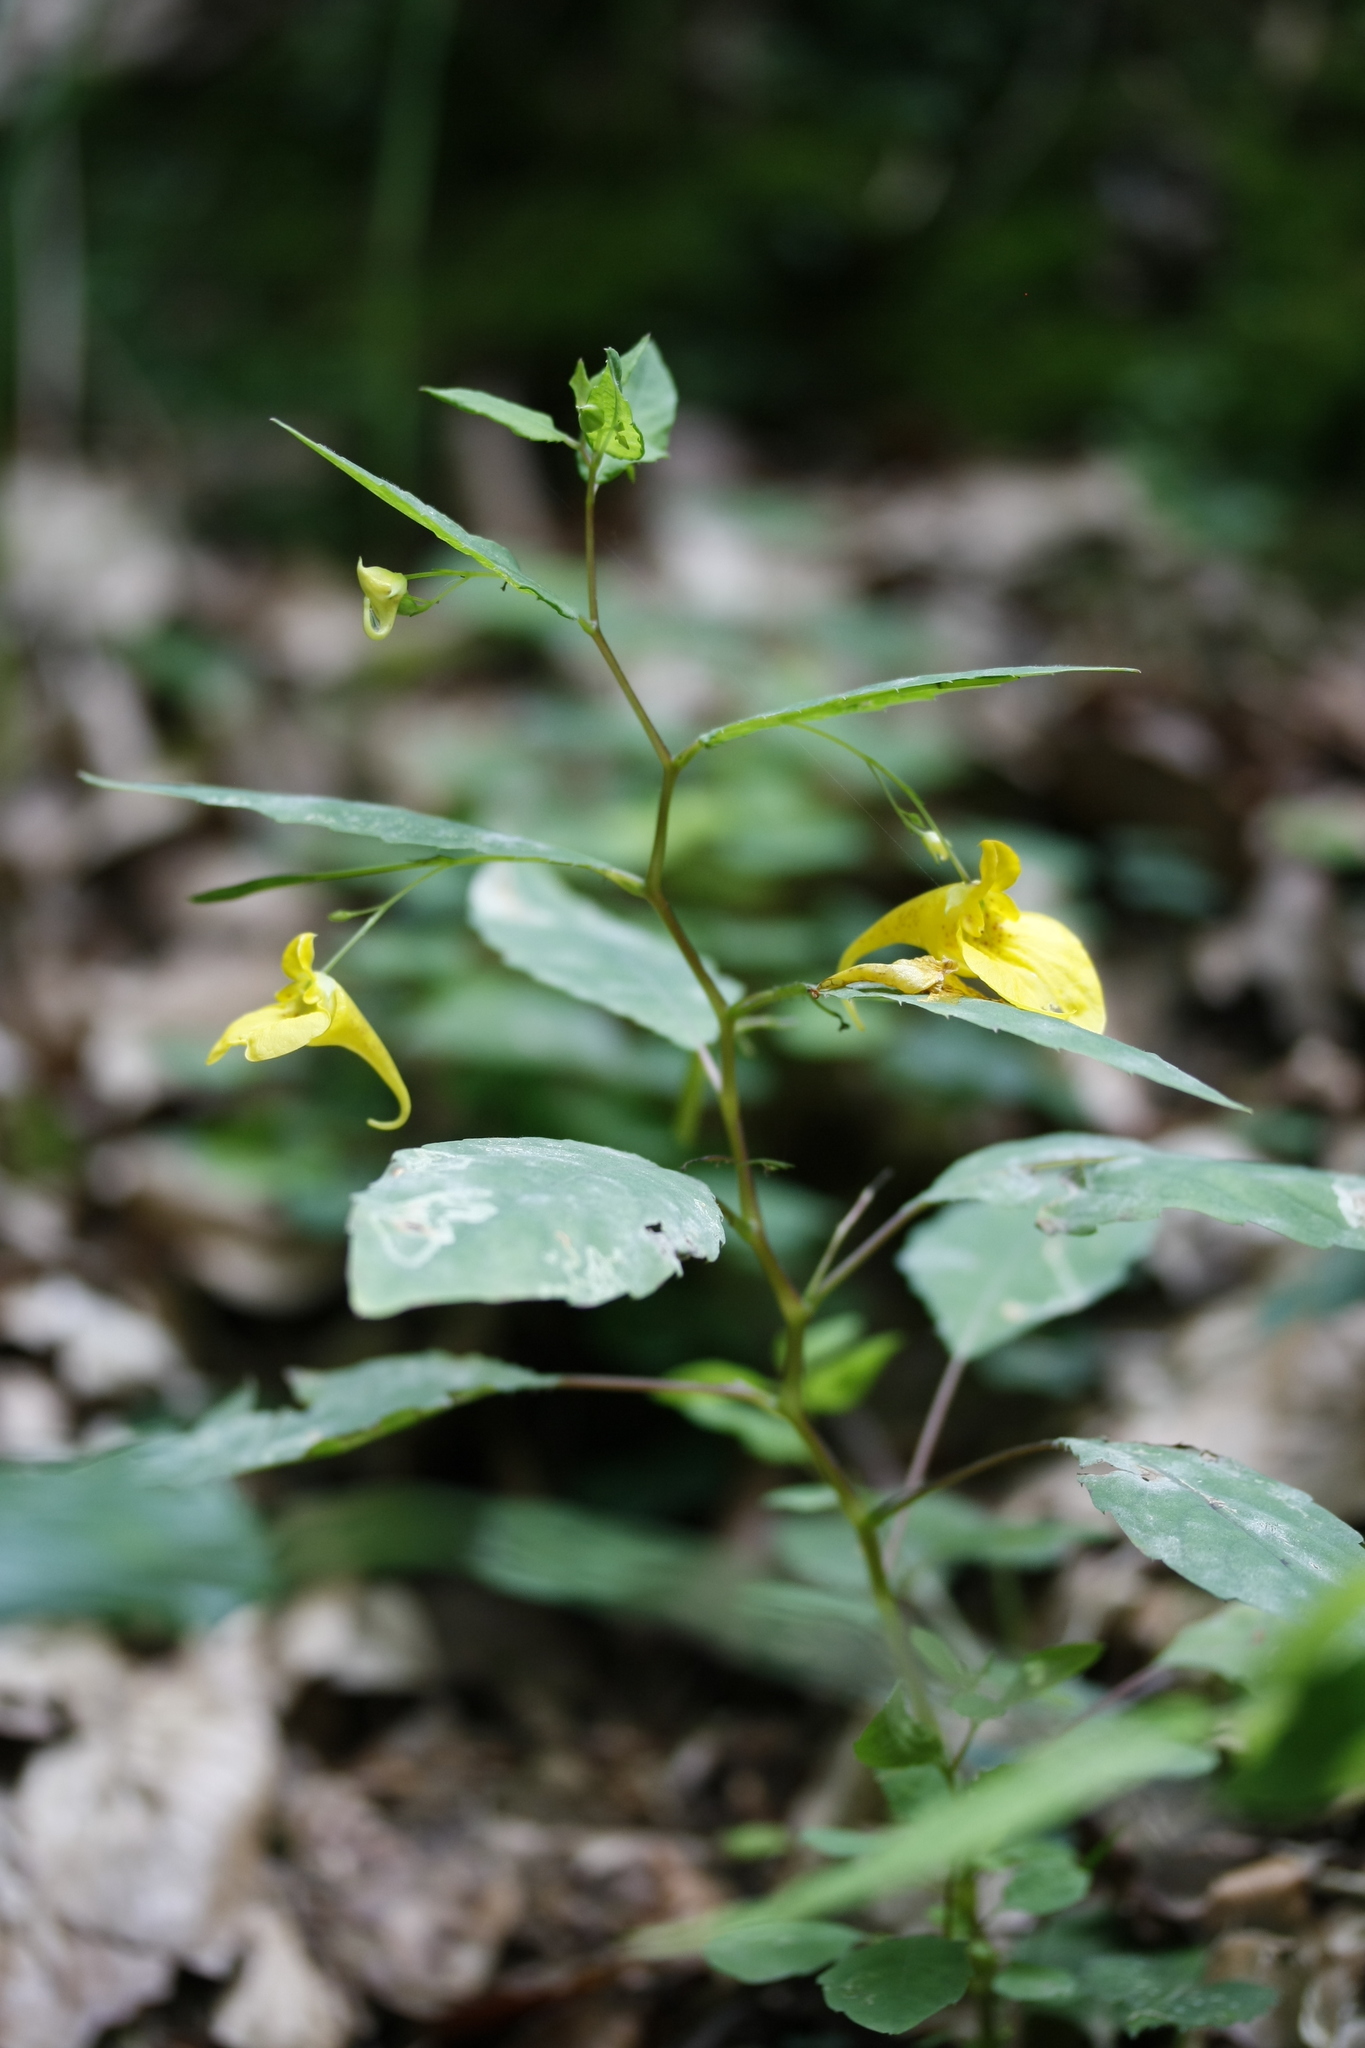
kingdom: Plantae
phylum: Tracheophyta
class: Magnoliopsida
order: Ericales
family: Balsaminaceae
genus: Impatiens
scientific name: Impatiens noli-tangere
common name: Touch-me-not balsam
